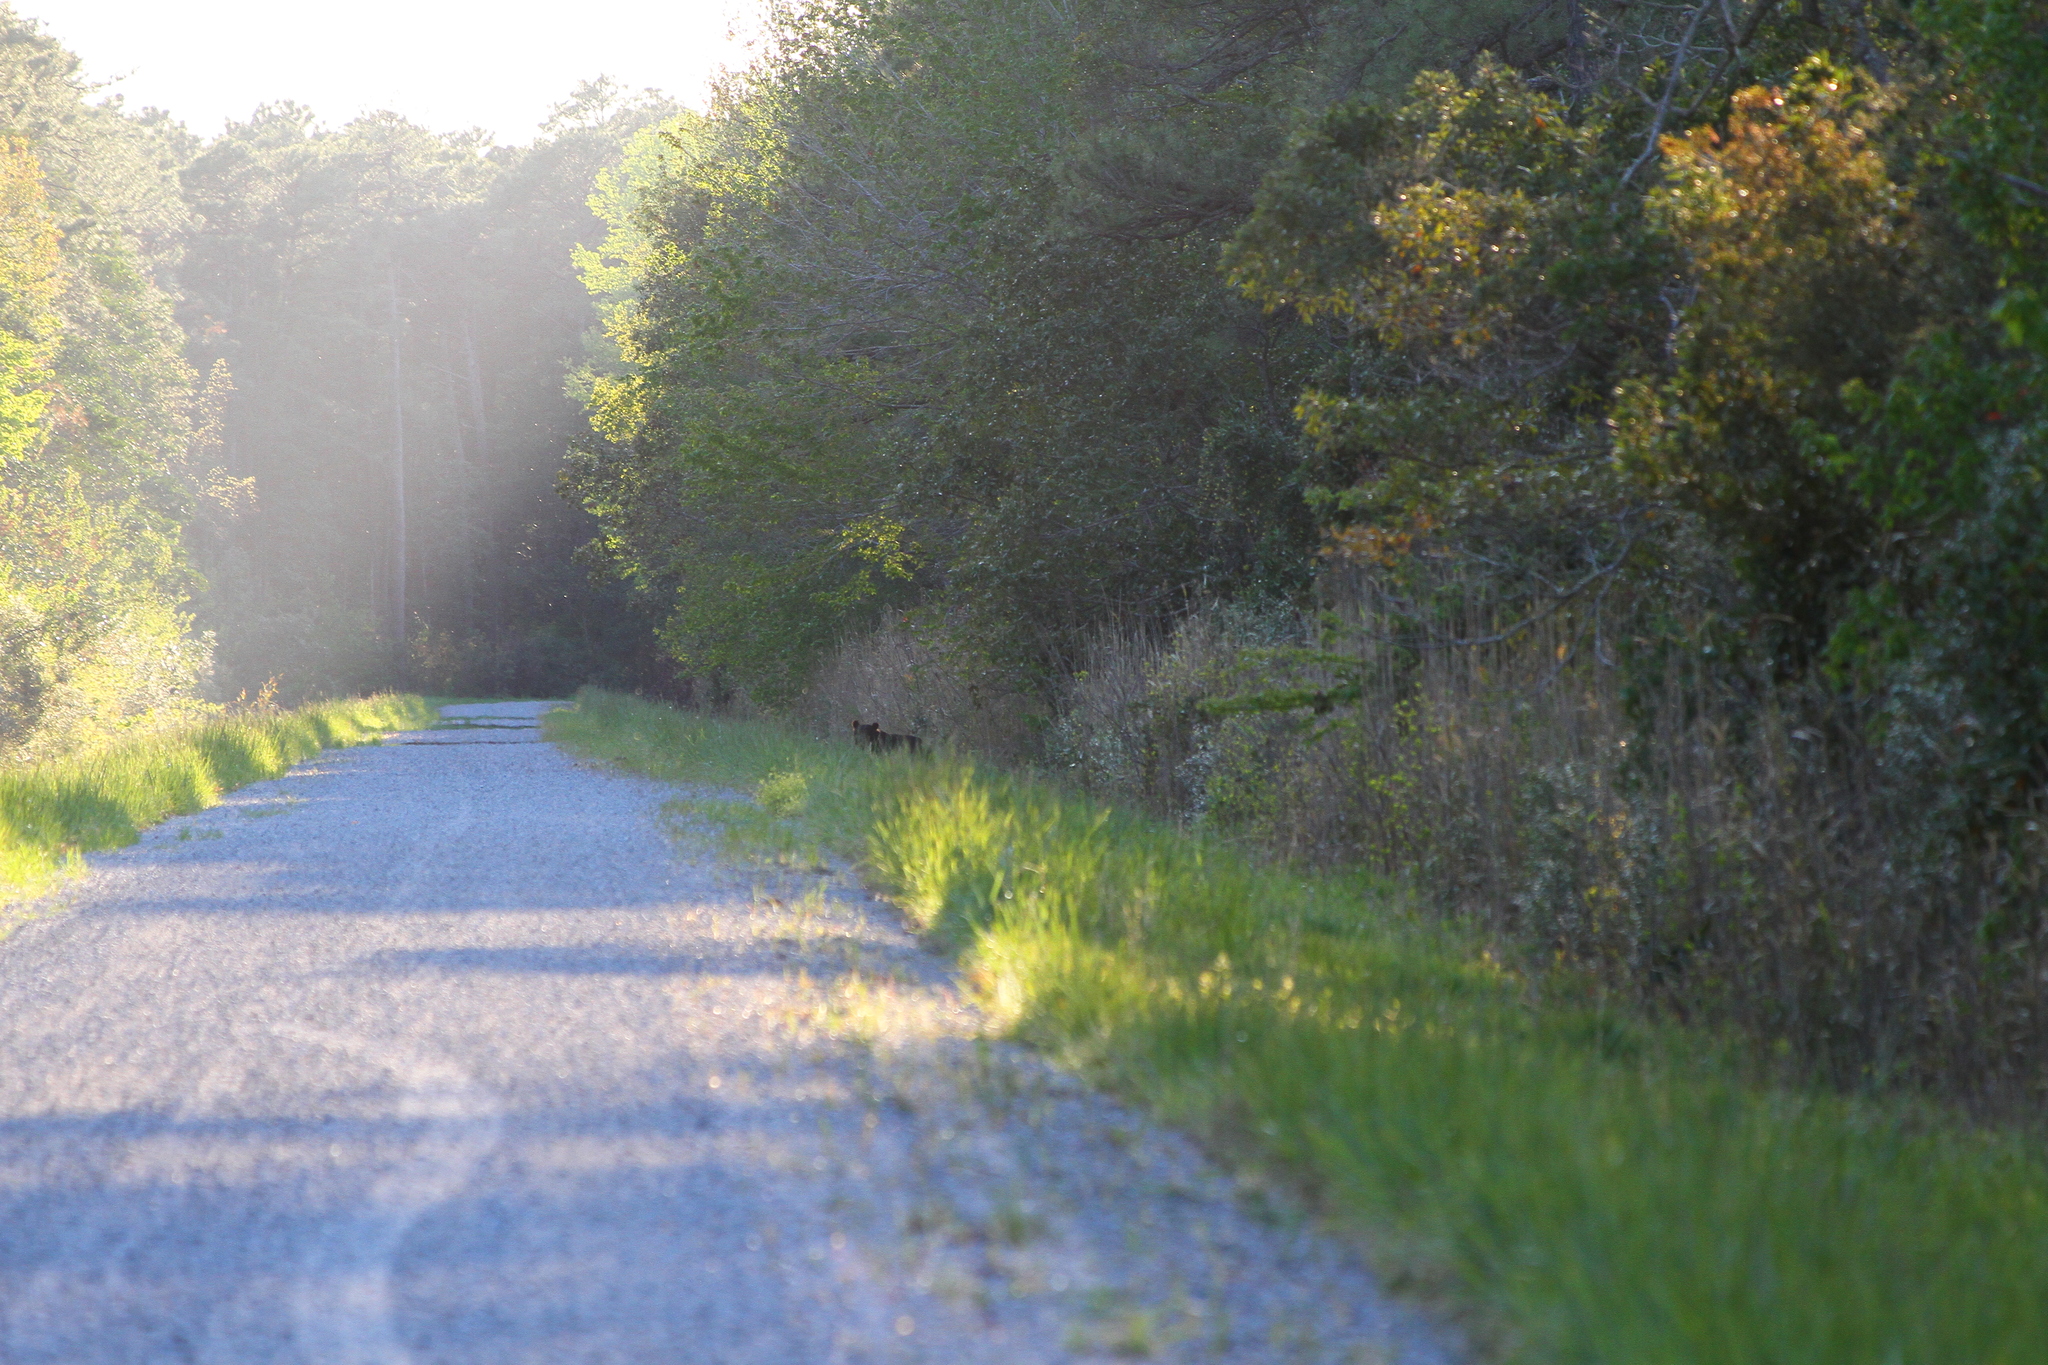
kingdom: Animalia
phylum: Chordata
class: Mammalia
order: Carnivora
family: Ursidae
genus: Ursus
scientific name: Ursus americanus
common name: American black bear
